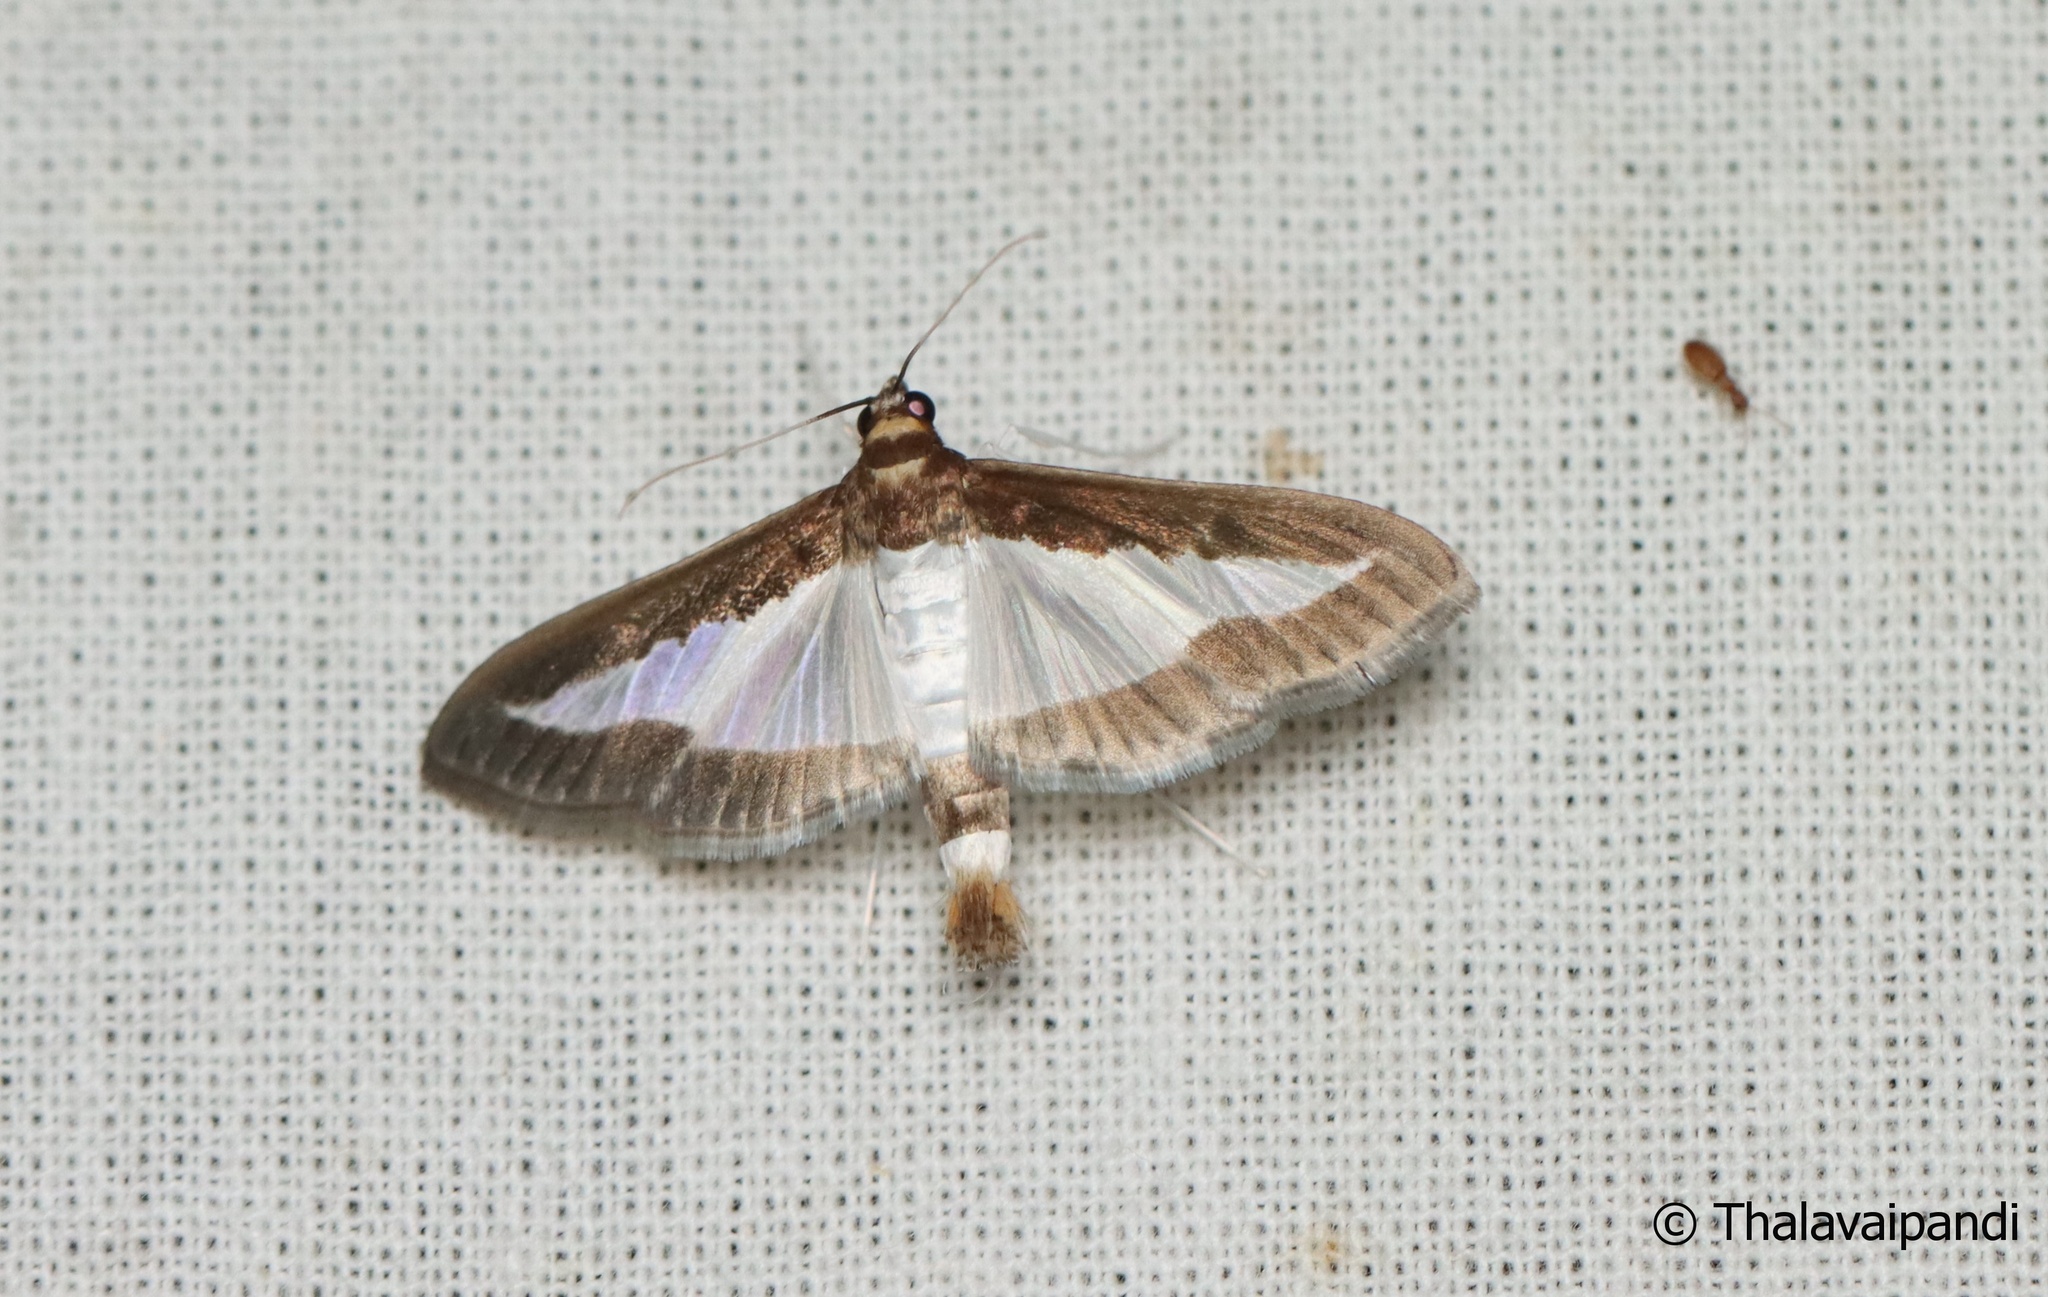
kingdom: Animalia
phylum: Arthropoda
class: Insecta
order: Lepidoptera
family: Crambidae
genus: Diaphania
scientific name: Diaphania indica
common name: Cucumber moth
